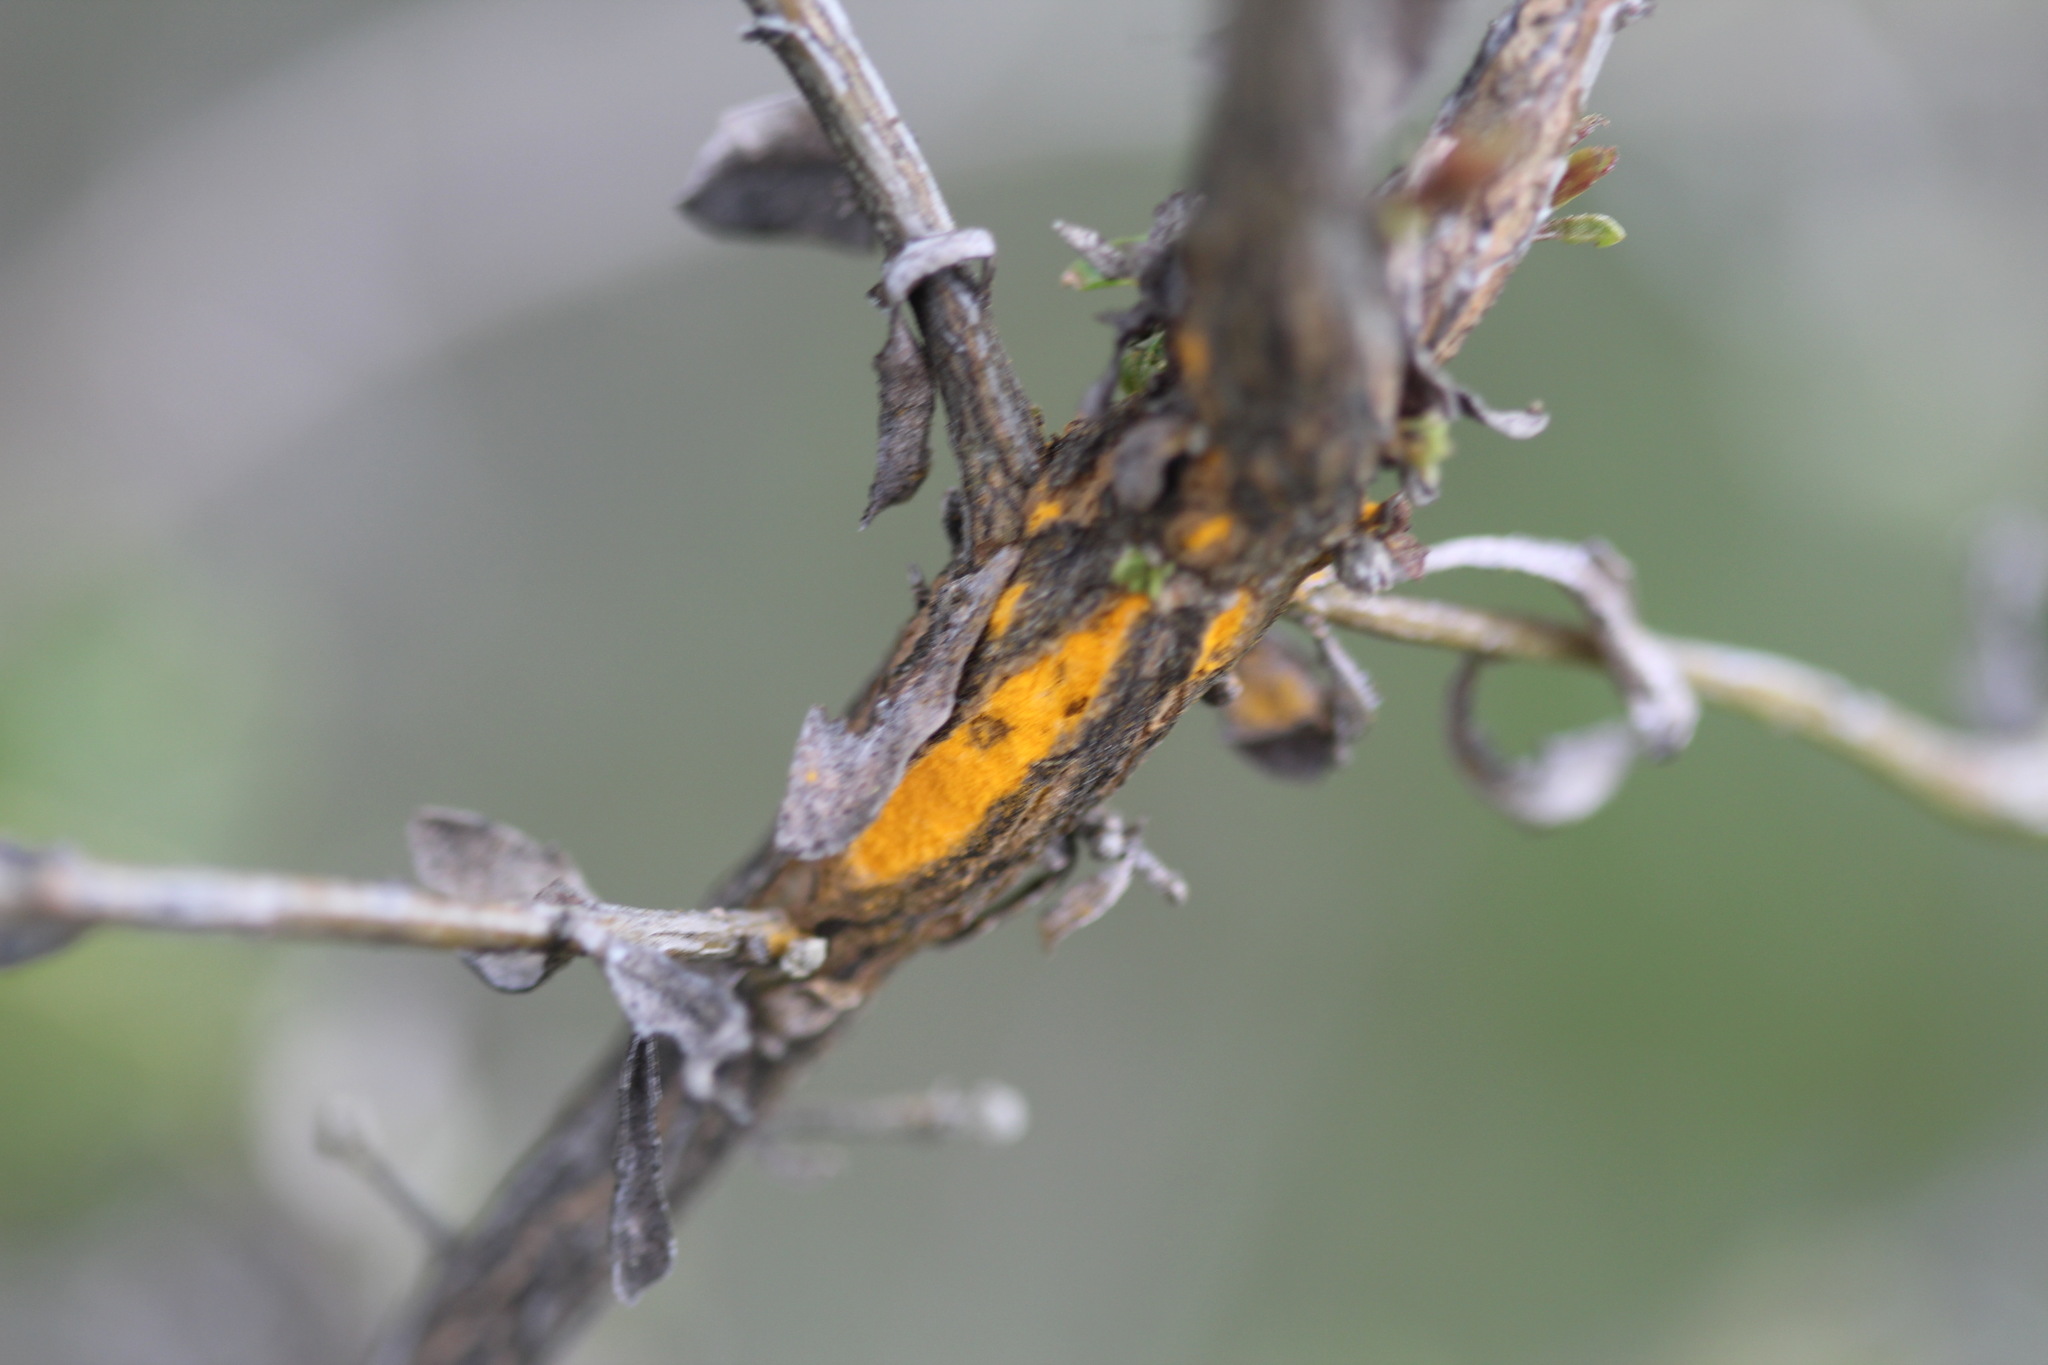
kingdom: Fungi
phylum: Basidiomycota
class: Pucciniomycetes
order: Pucciniales
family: Pucciniaceae
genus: Eriosporangium
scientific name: Eriosporangium evadens
